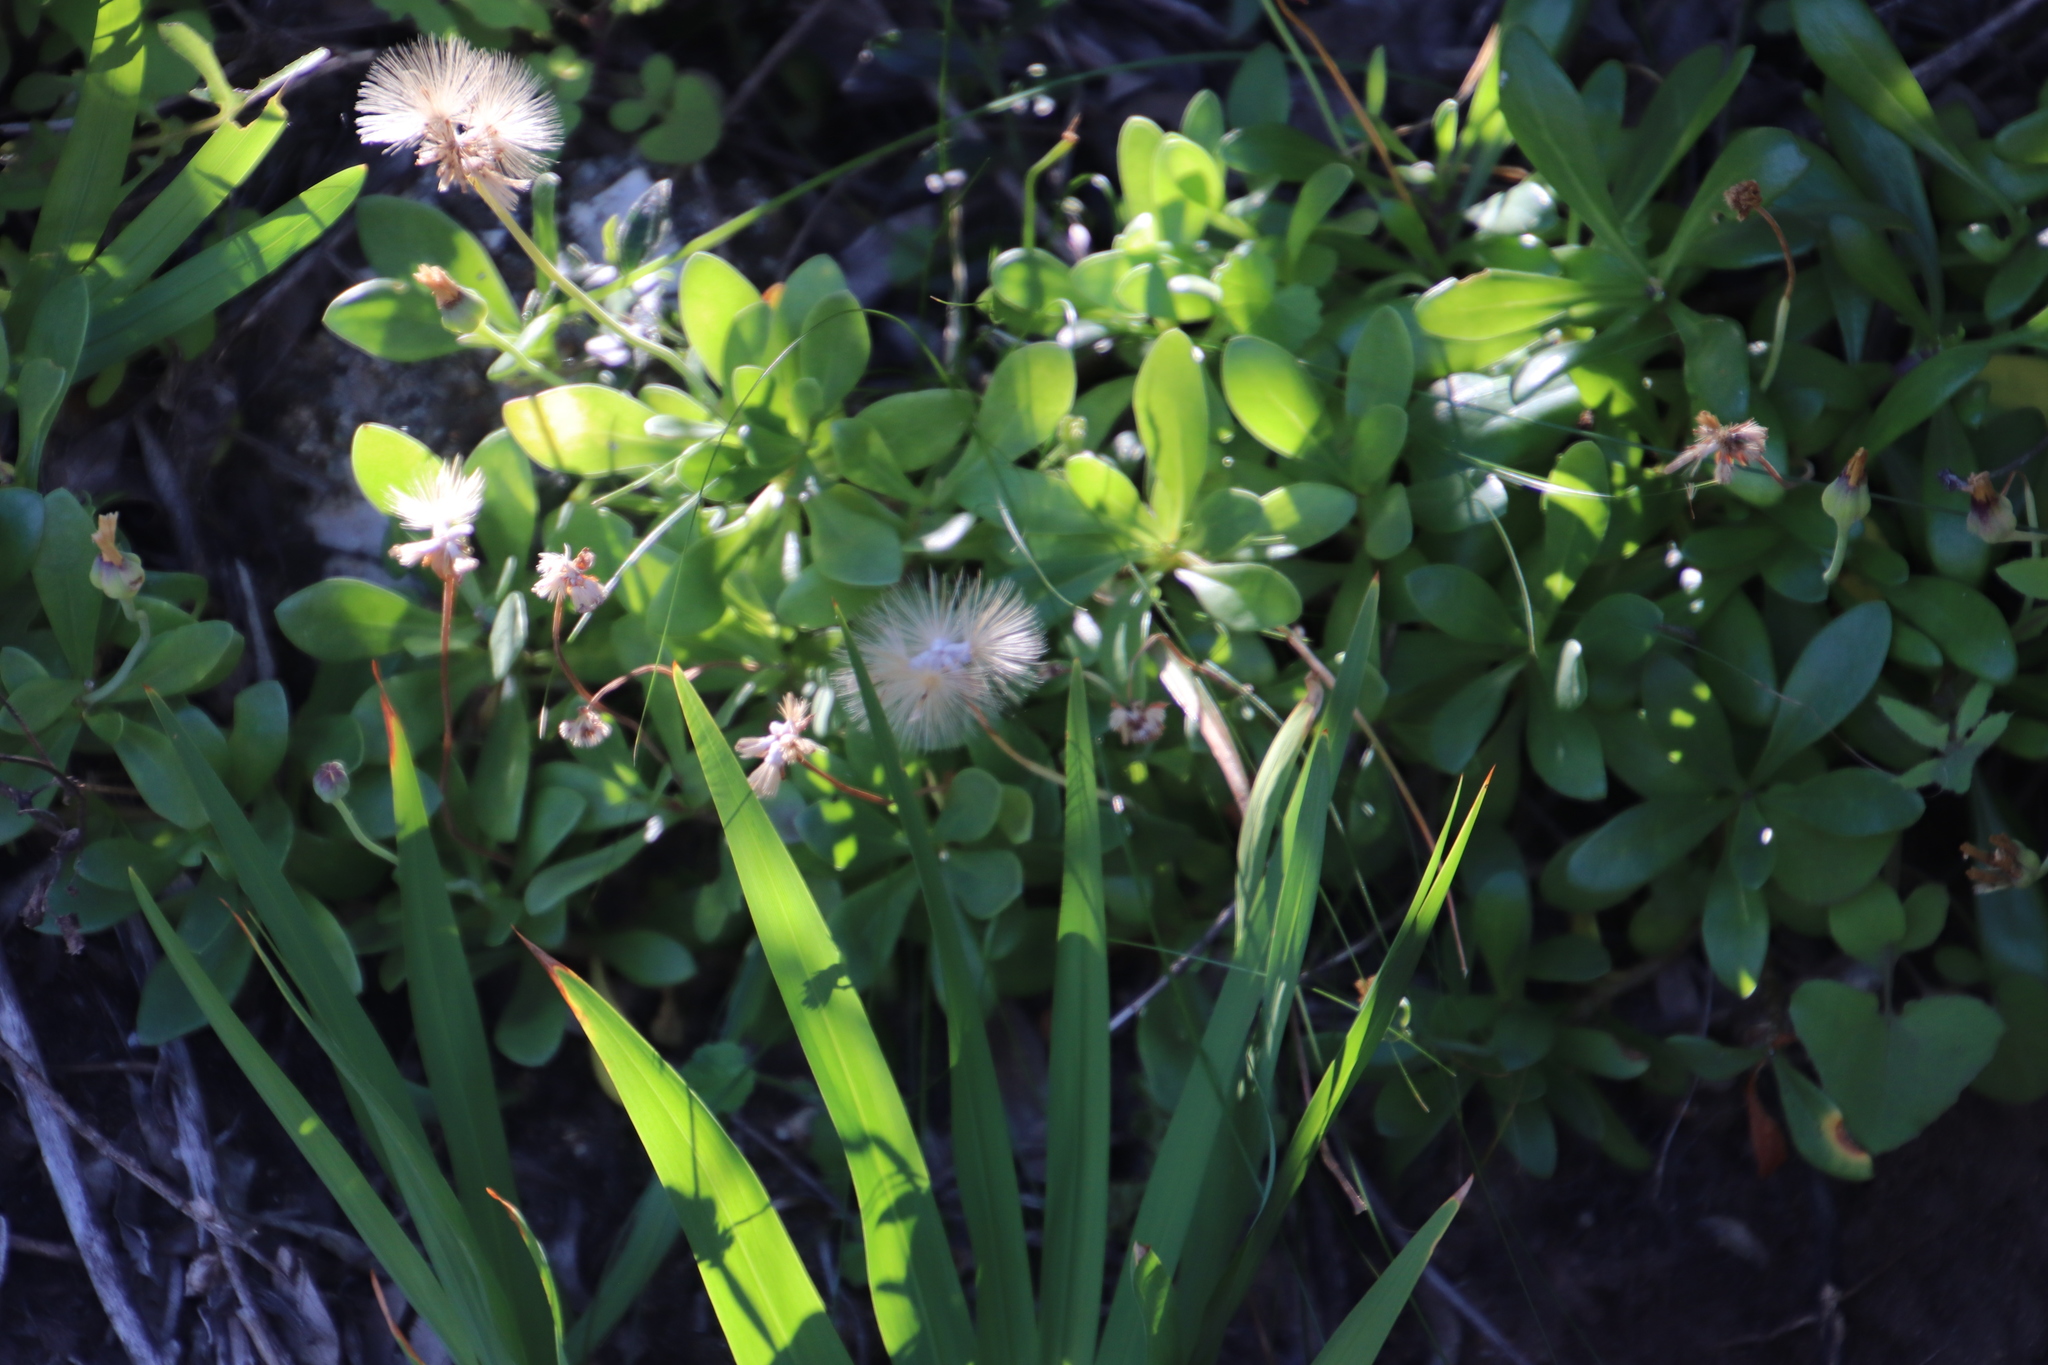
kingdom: Plantae
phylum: Tracheophyta
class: Magnoliopsida
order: Asterales
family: Asteraceae
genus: Othonna
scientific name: Othonna arborescens
